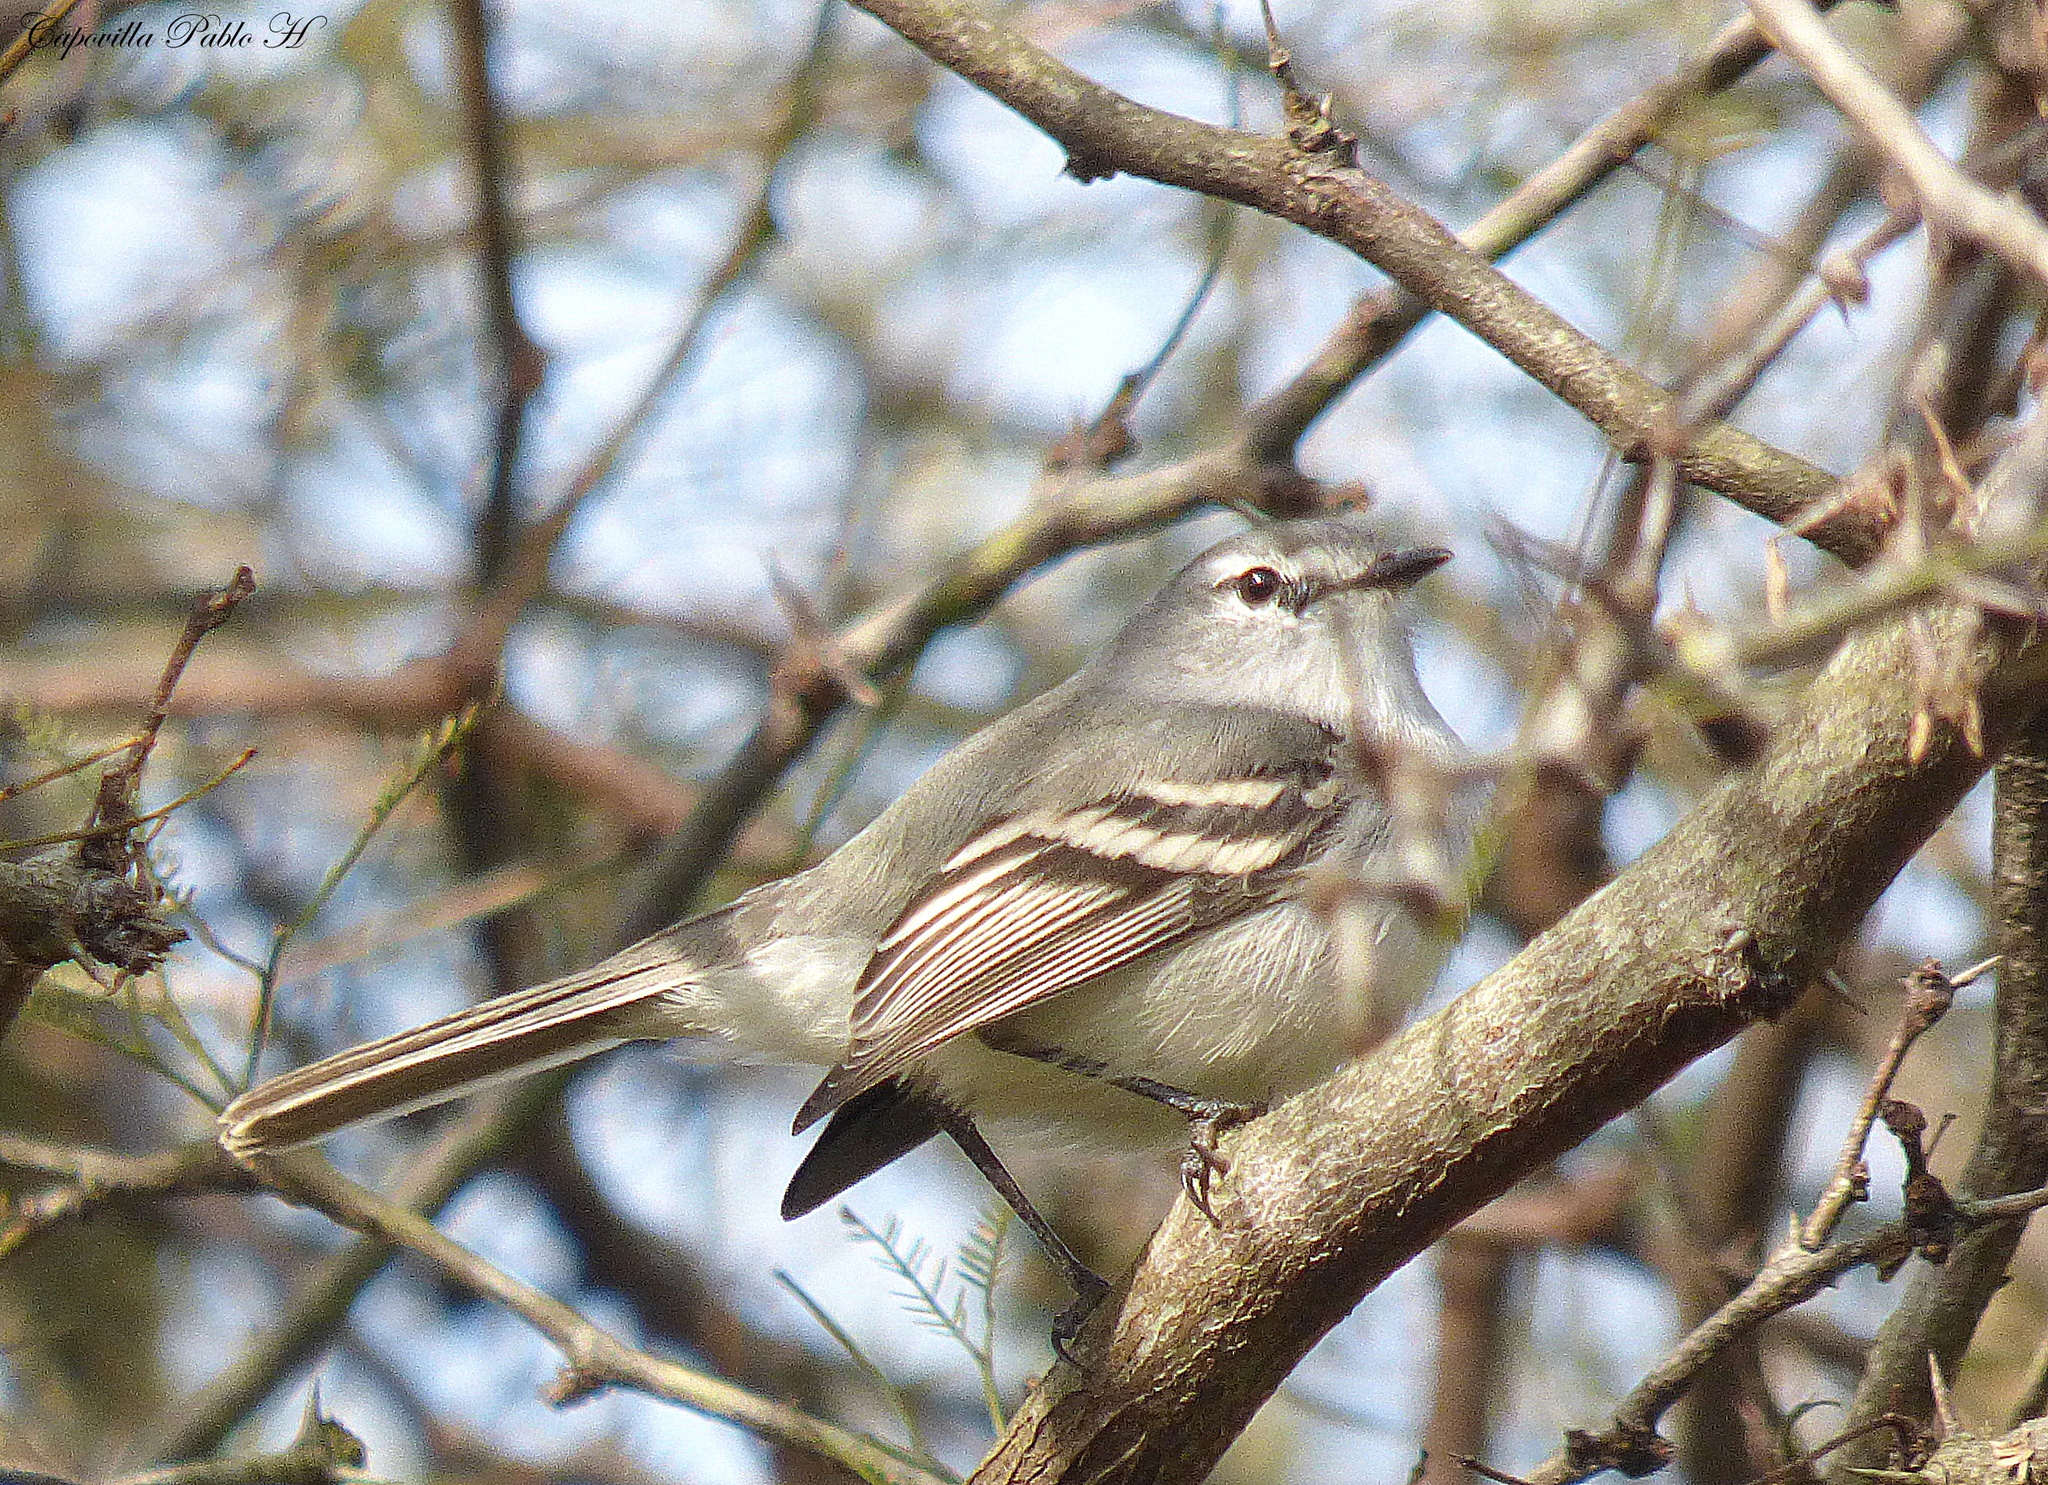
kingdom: Animalia
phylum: Chordata
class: Aves
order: Passeriformes
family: Tyrannidae
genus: Serpophaga
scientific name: Serpophaga subcristata
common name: White-crested tyrannulet
